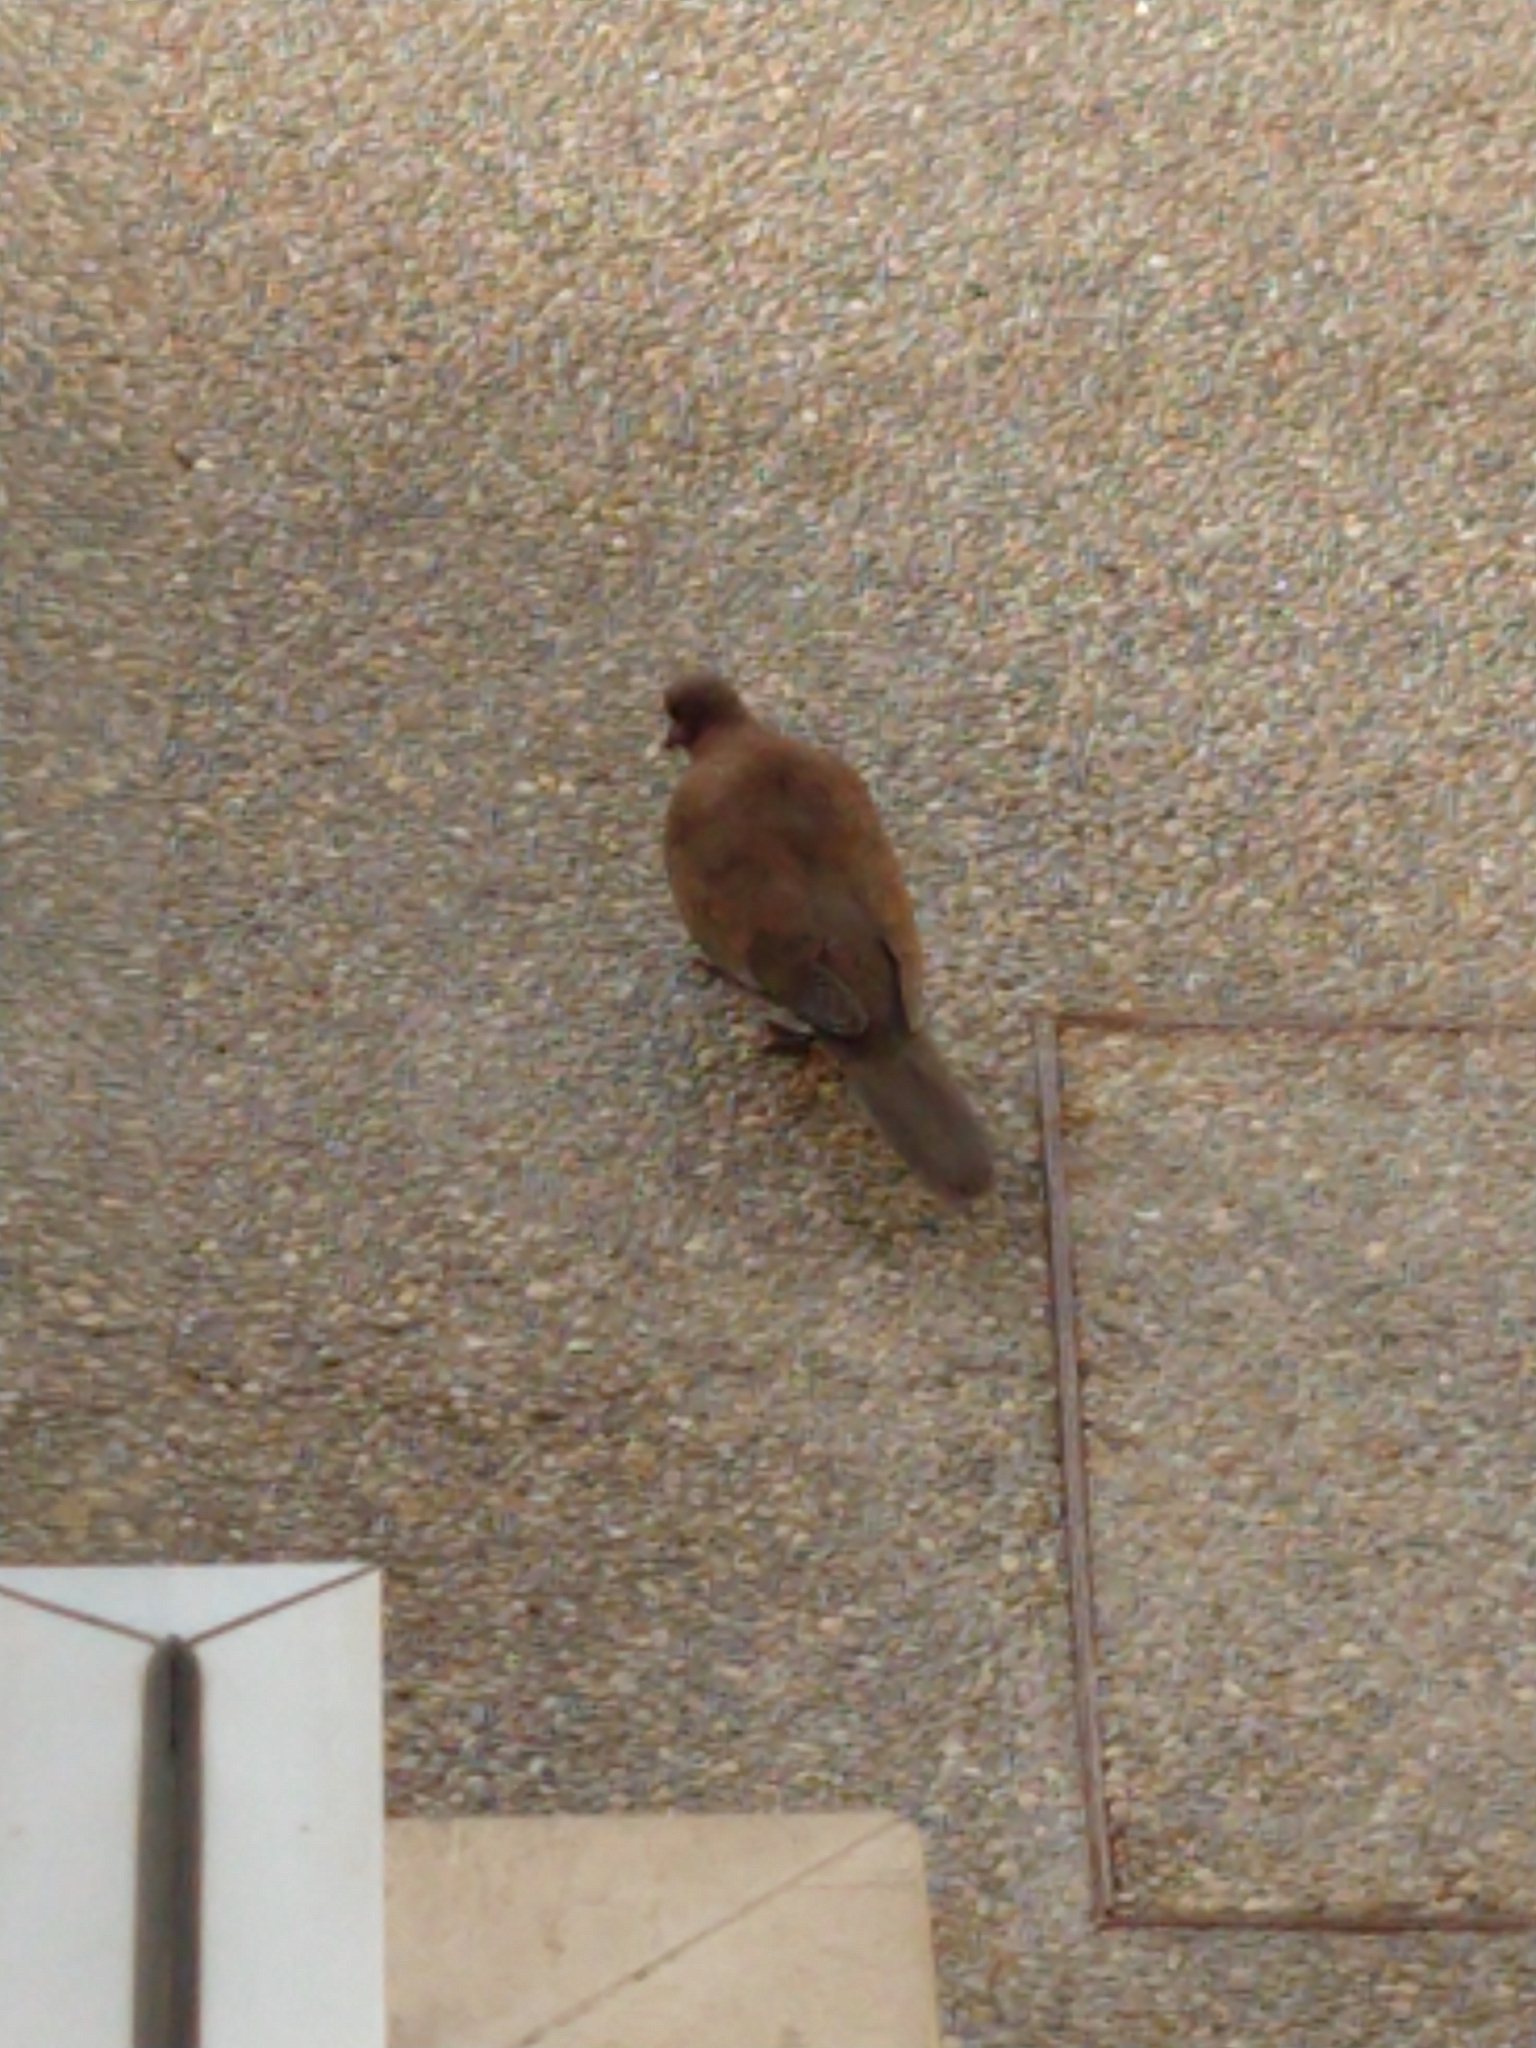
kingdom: Animalia
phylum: Chordata
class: Aves
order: Columbiformes
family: Columbidae
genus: Spilopelia
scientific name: Spilopelia senegalensis
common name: Laughing dove
